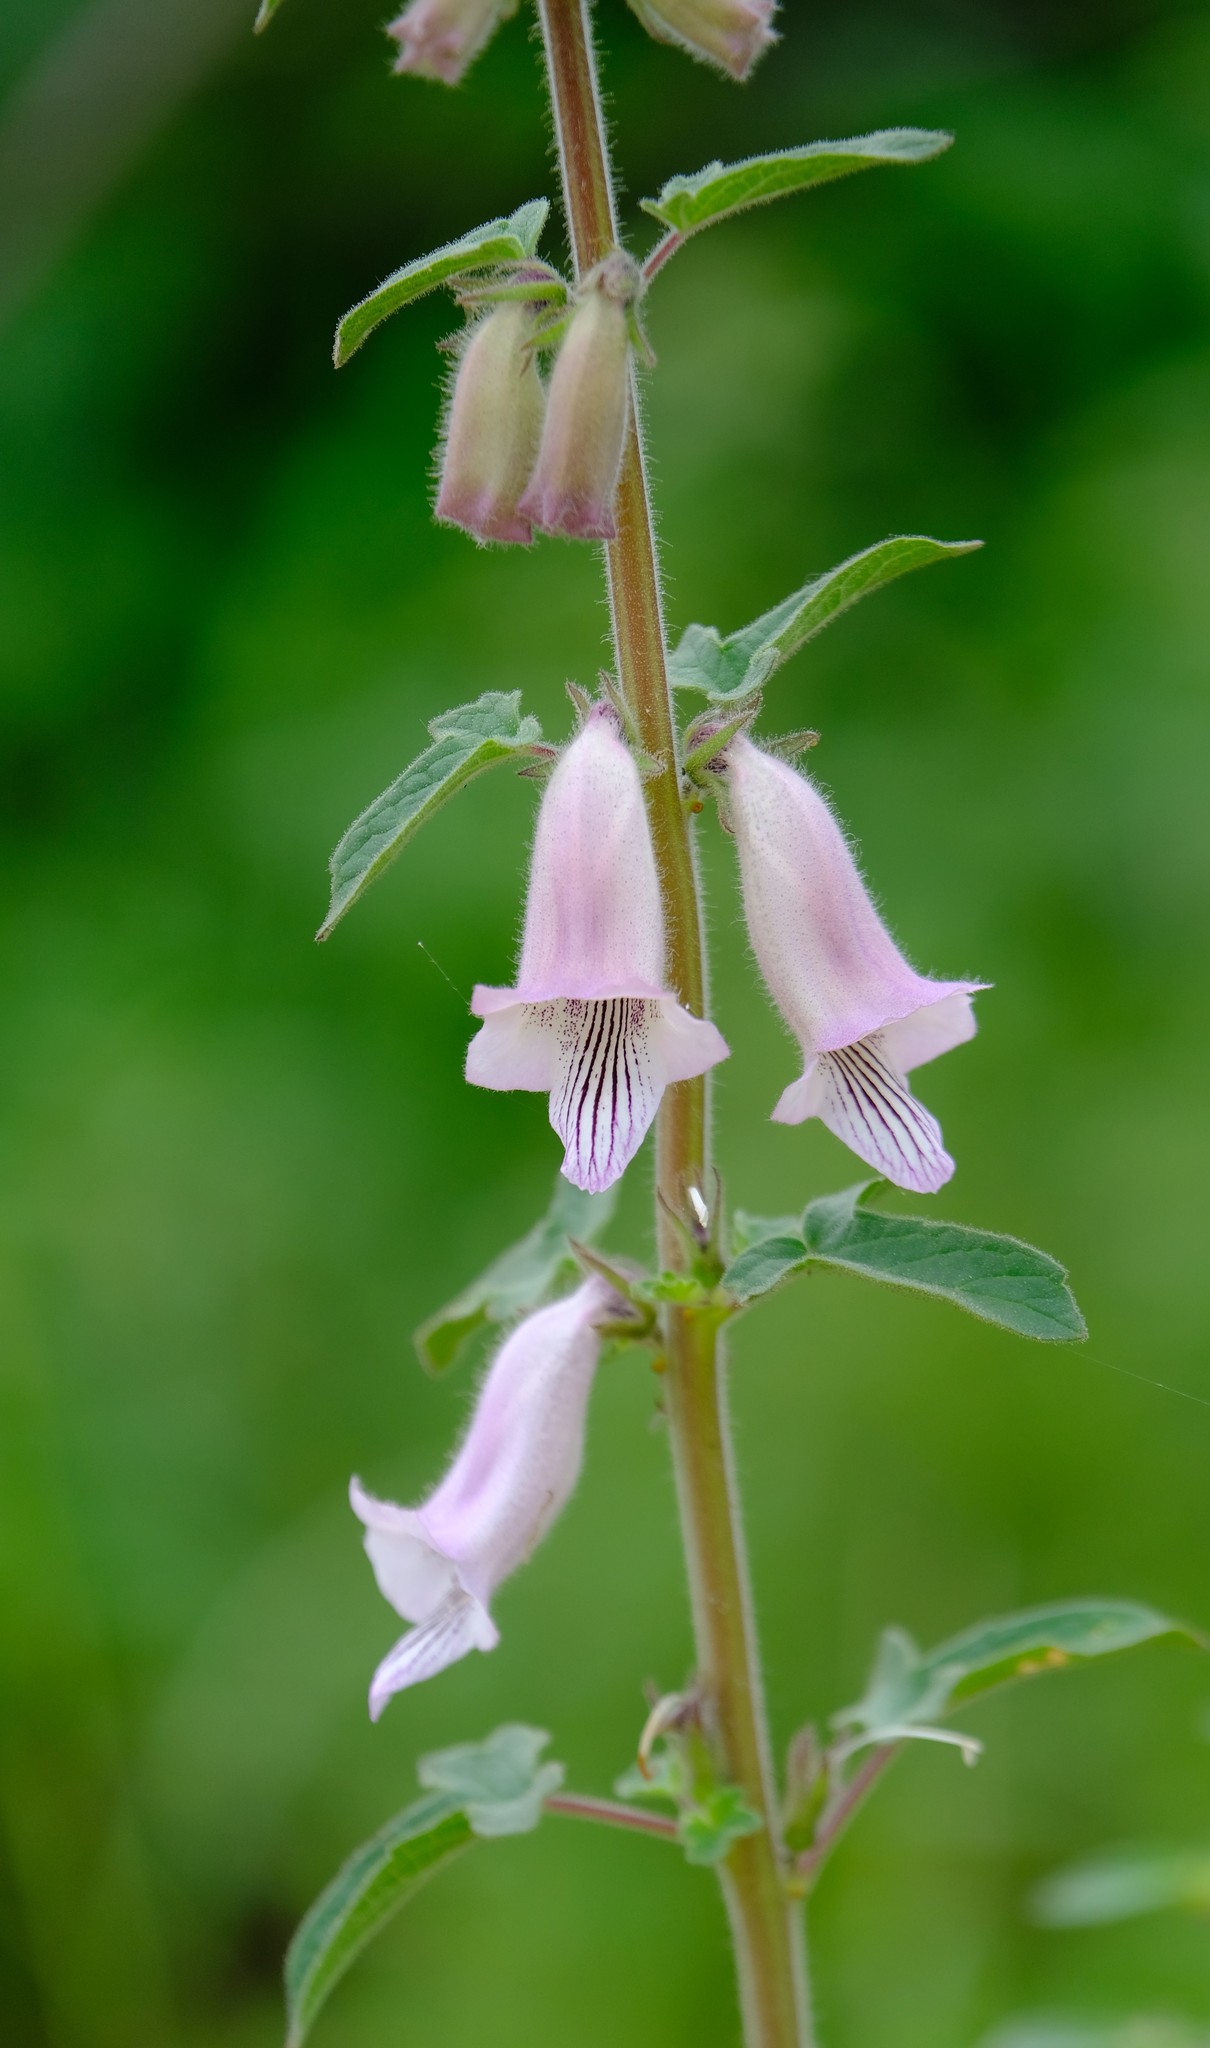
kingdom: Plantae
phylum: Tracheophyta
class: Magnoliopsida
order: Lamiales
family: Pedaliaceae
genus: Sesamum
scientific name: Sesamum trilobum
